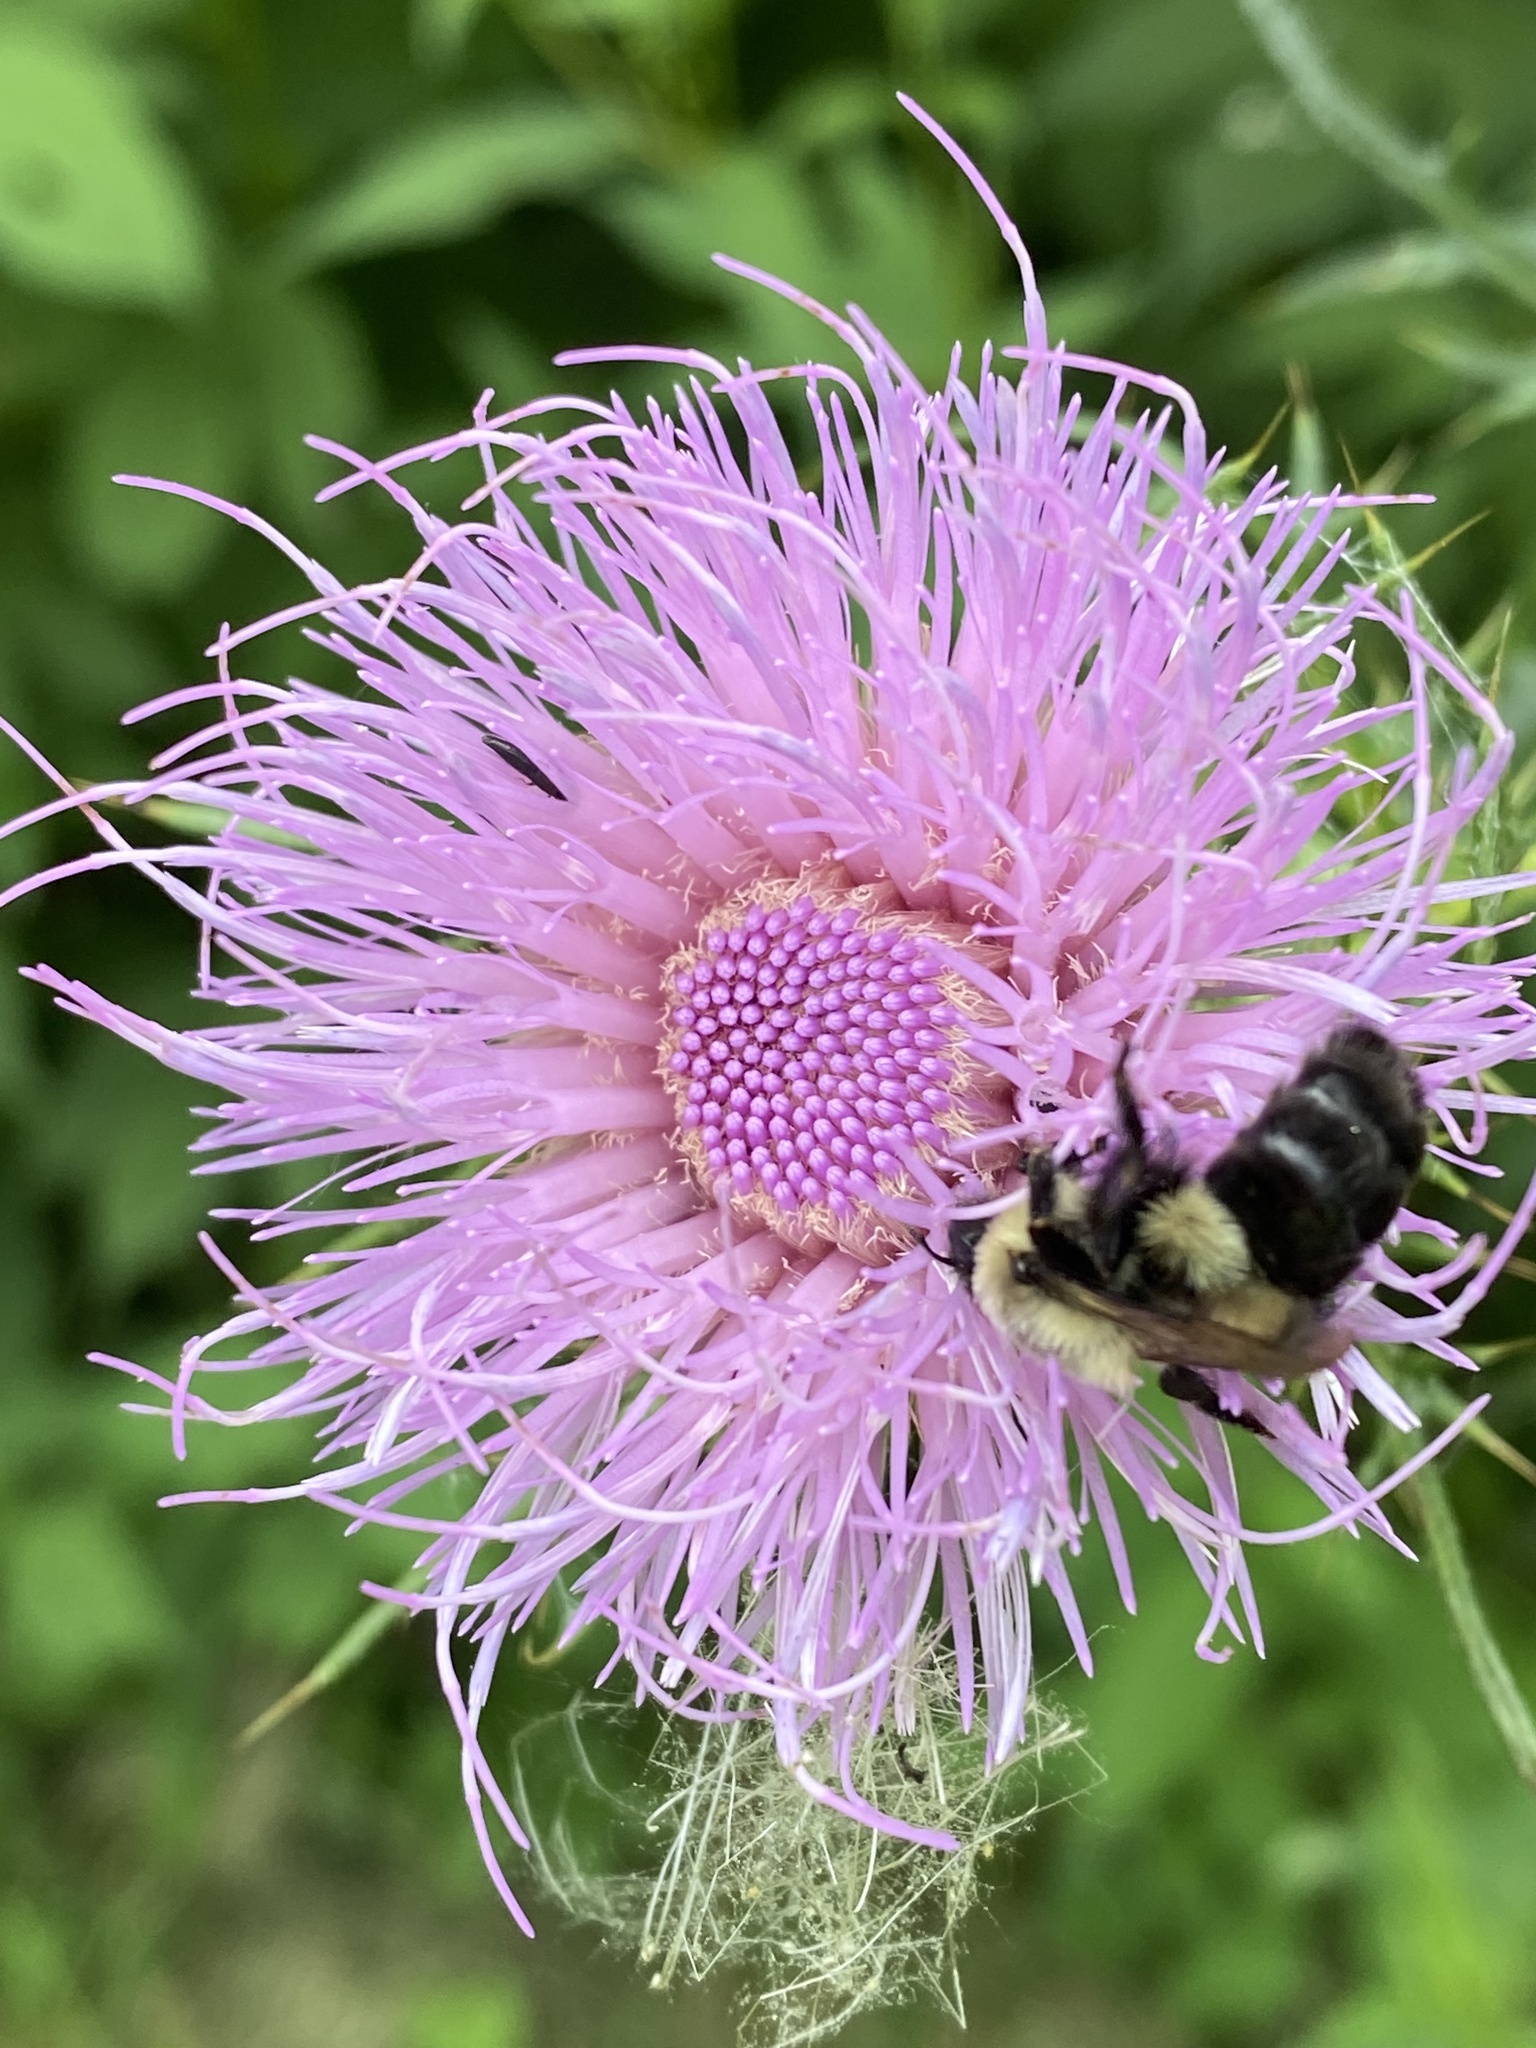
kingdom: Animalia
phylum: Arthropoda
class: Insecta
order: Hymenoptera
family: Apidae
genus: Bombus
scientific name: Bombus impatiens
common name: Common eastern bumble bee
